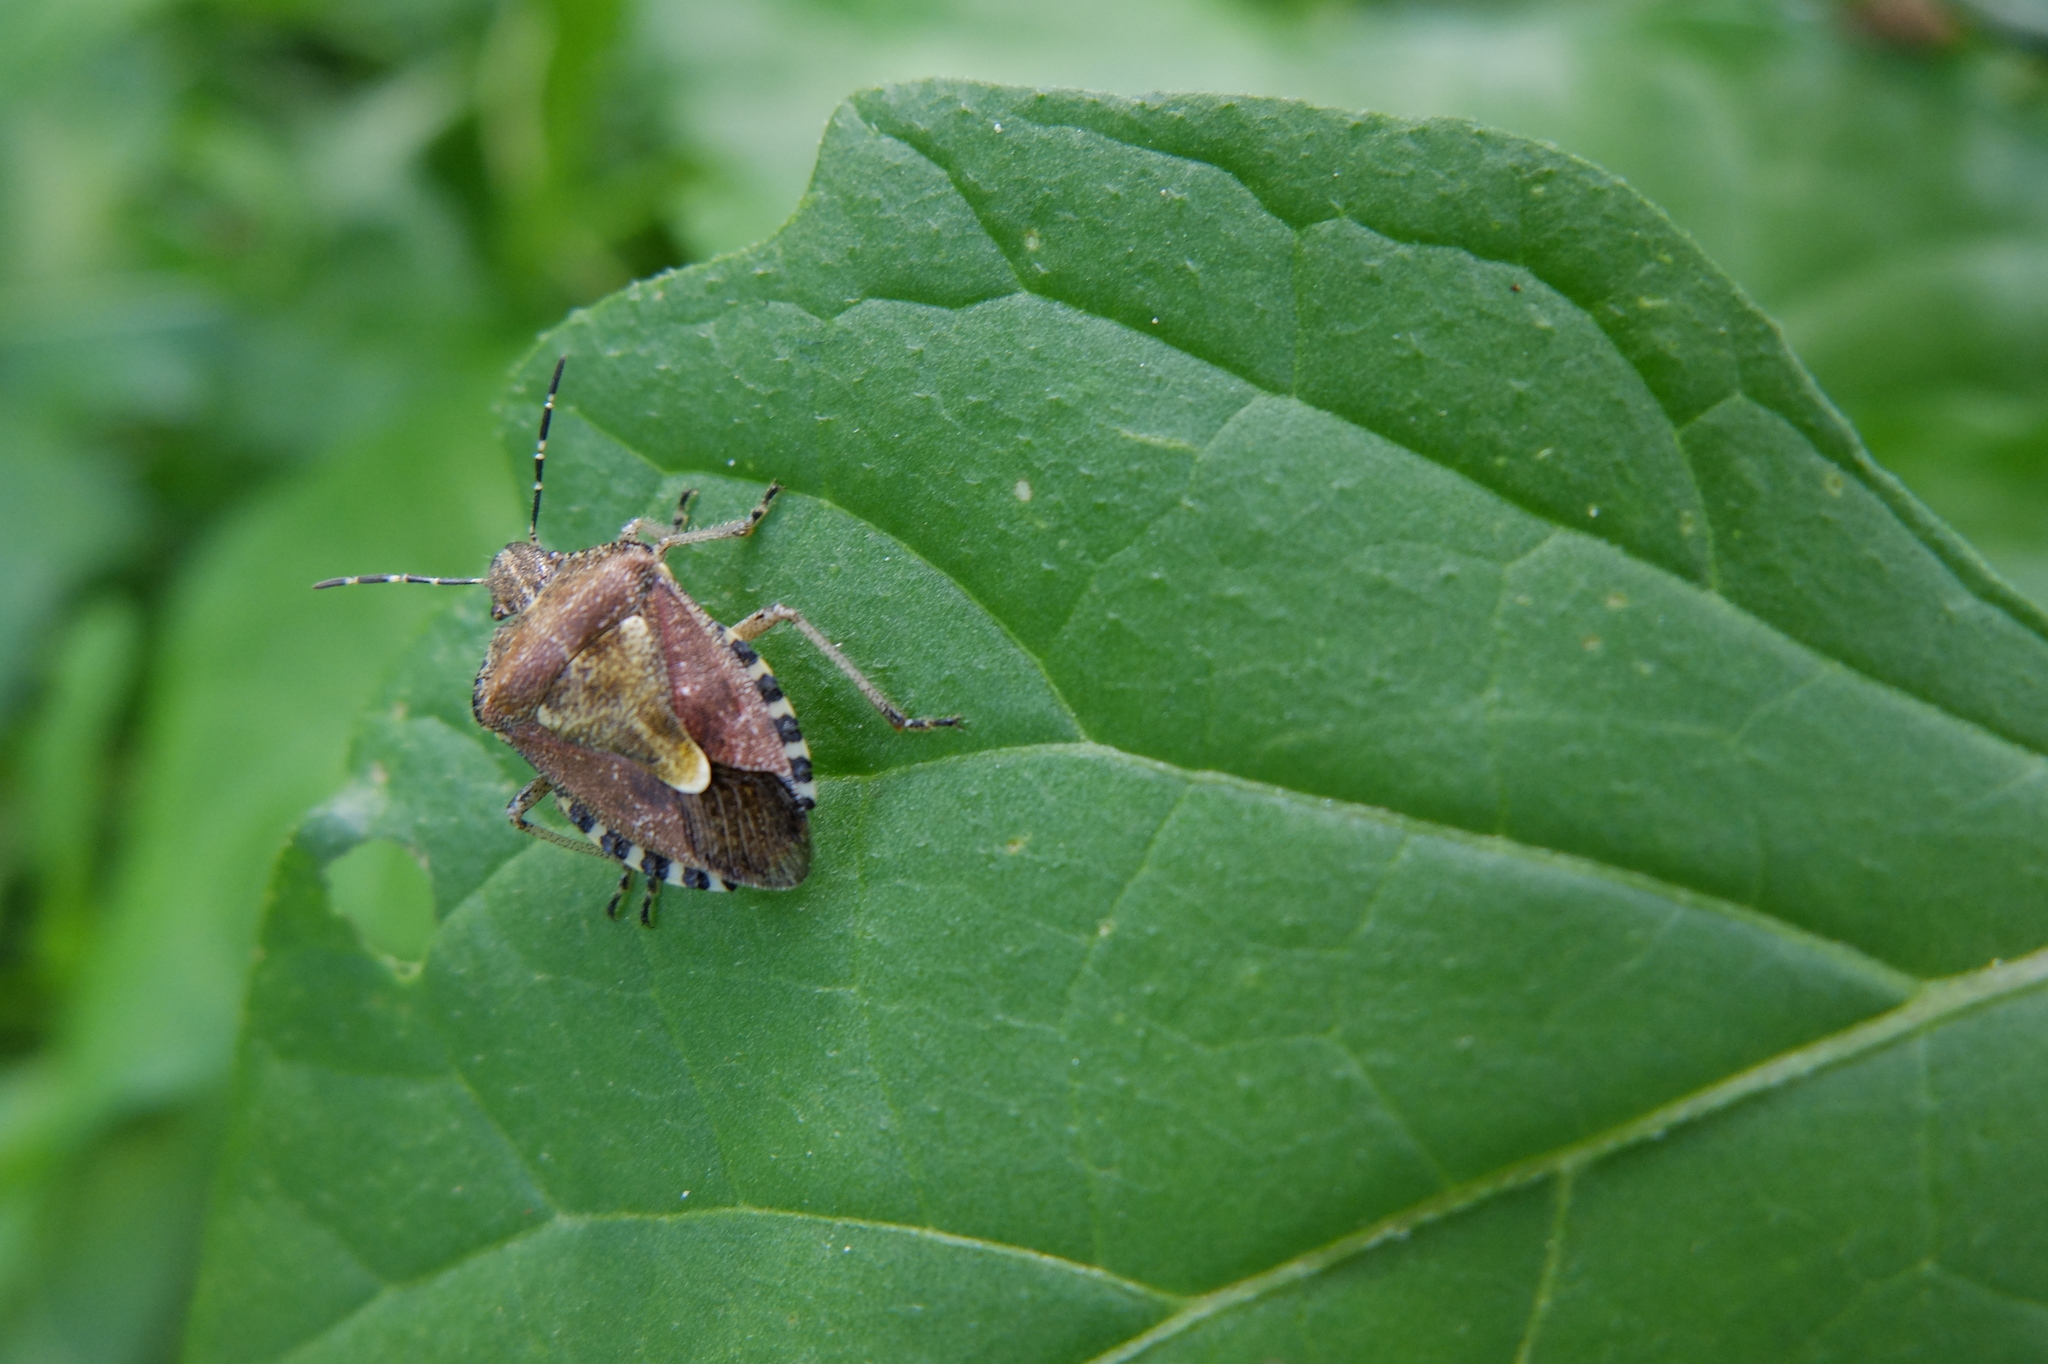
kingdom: Animalia
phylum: Arthropoda
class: Insecta
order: Hemiptera
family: Pentatomidae
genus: Dolycoris
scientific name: Dolycoris baccarum
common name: Sloe bug
